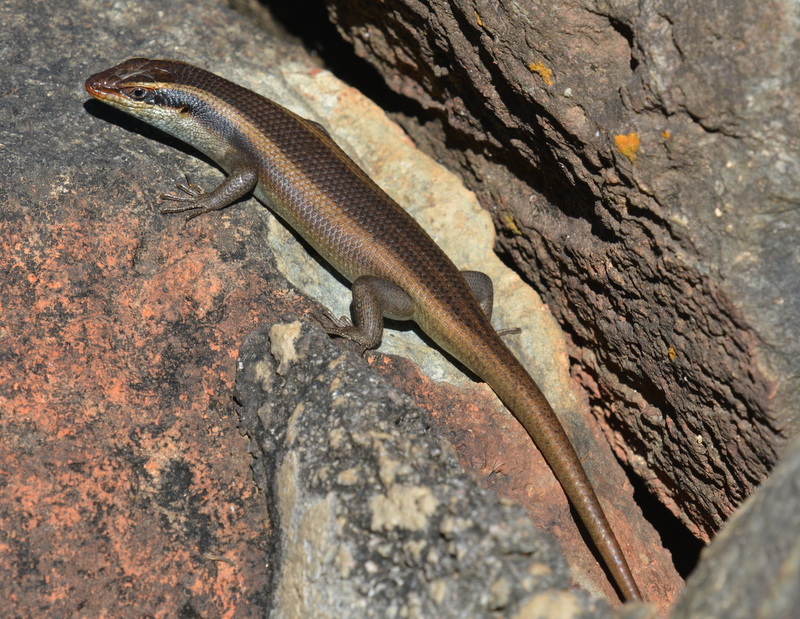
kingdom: Animalia
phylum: Chordata
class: Squamata
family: Scincidae
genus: Trachylepis
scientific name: Trachylepis wahlbergii
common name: Wahlberg’s striped skink
